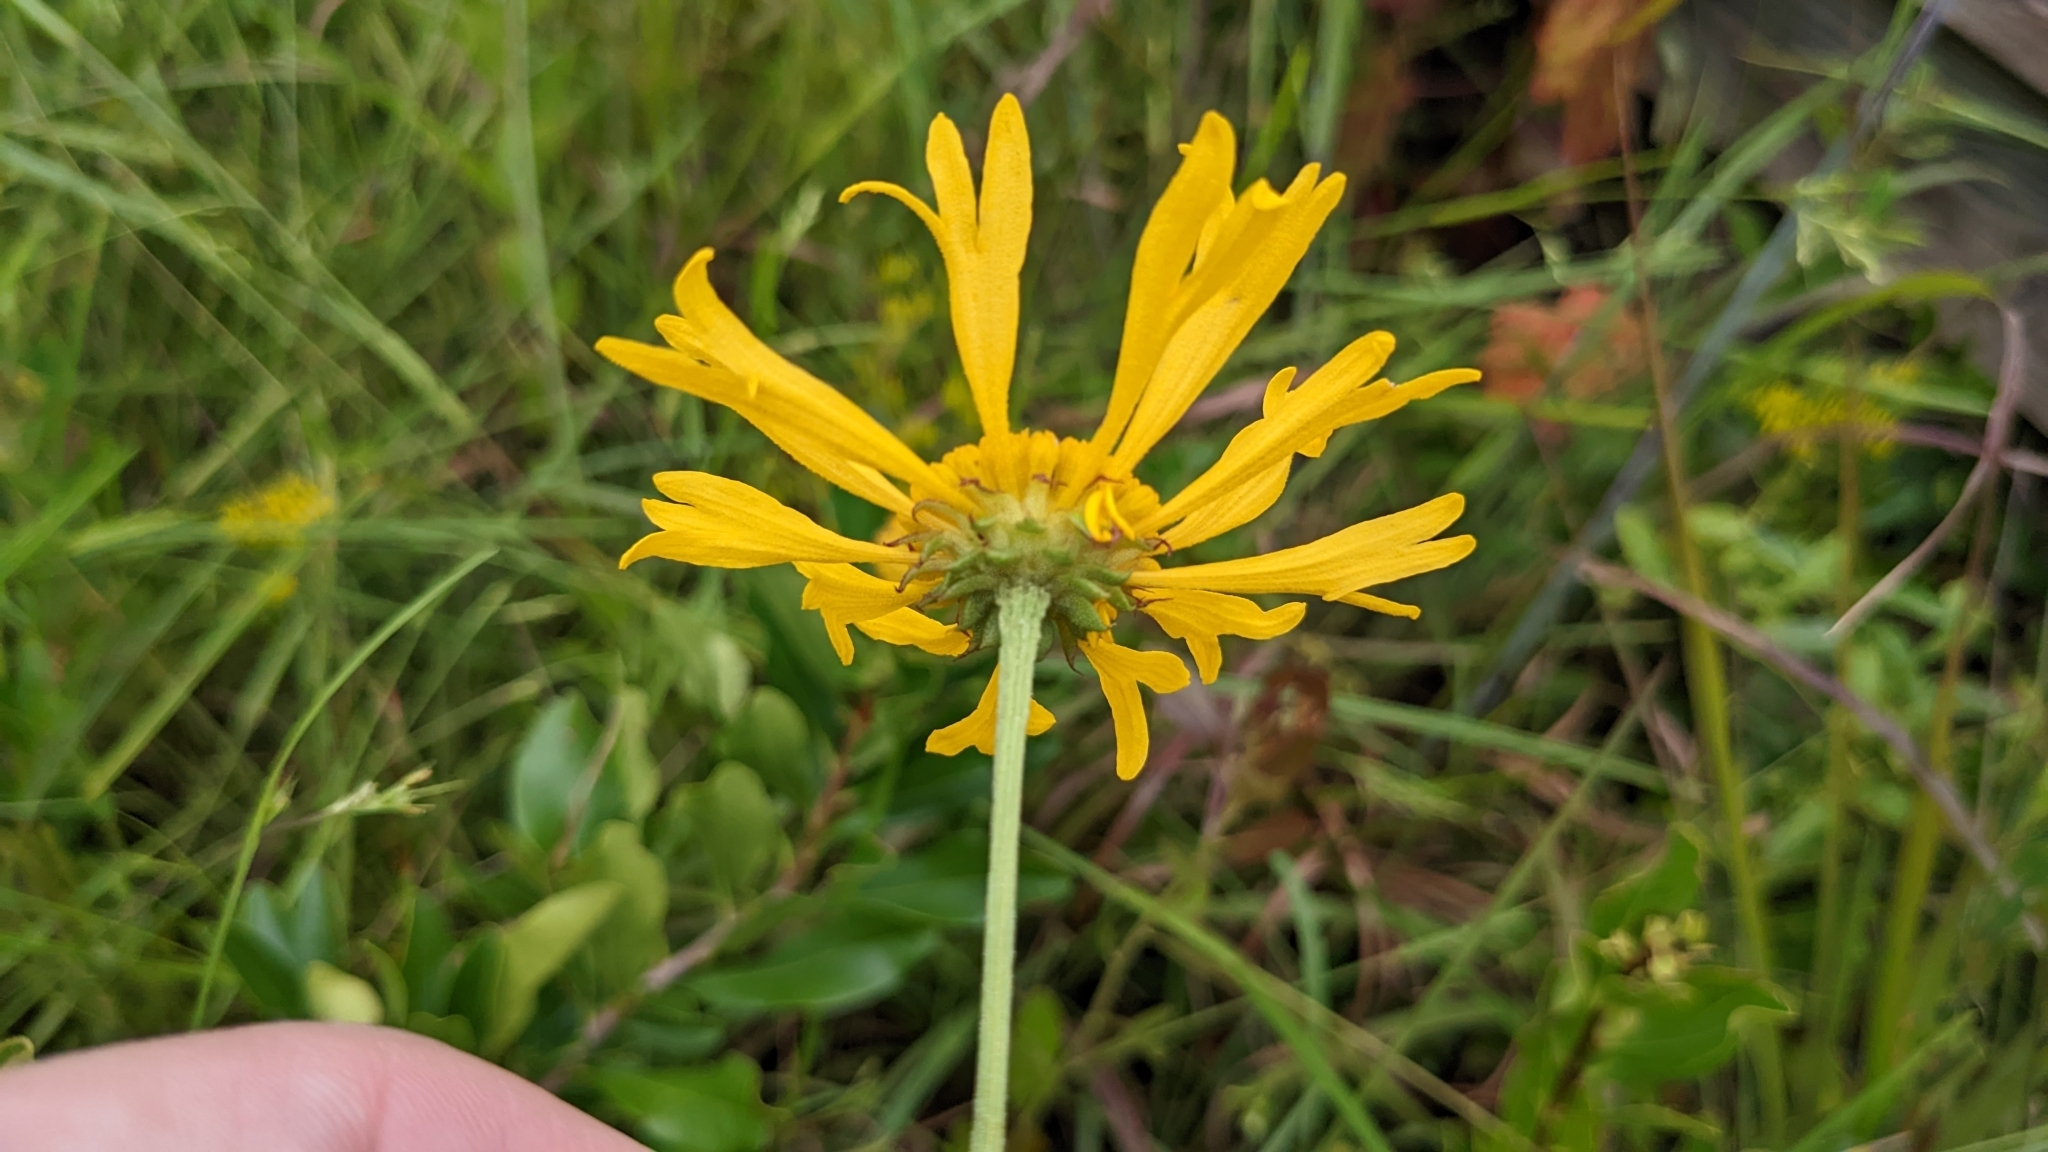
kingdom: Plantae
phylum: Tracheophyta
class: Magnoliopsida
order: Asterales
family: Asteraceae
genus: Balduina
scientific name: Balduina uniflora
